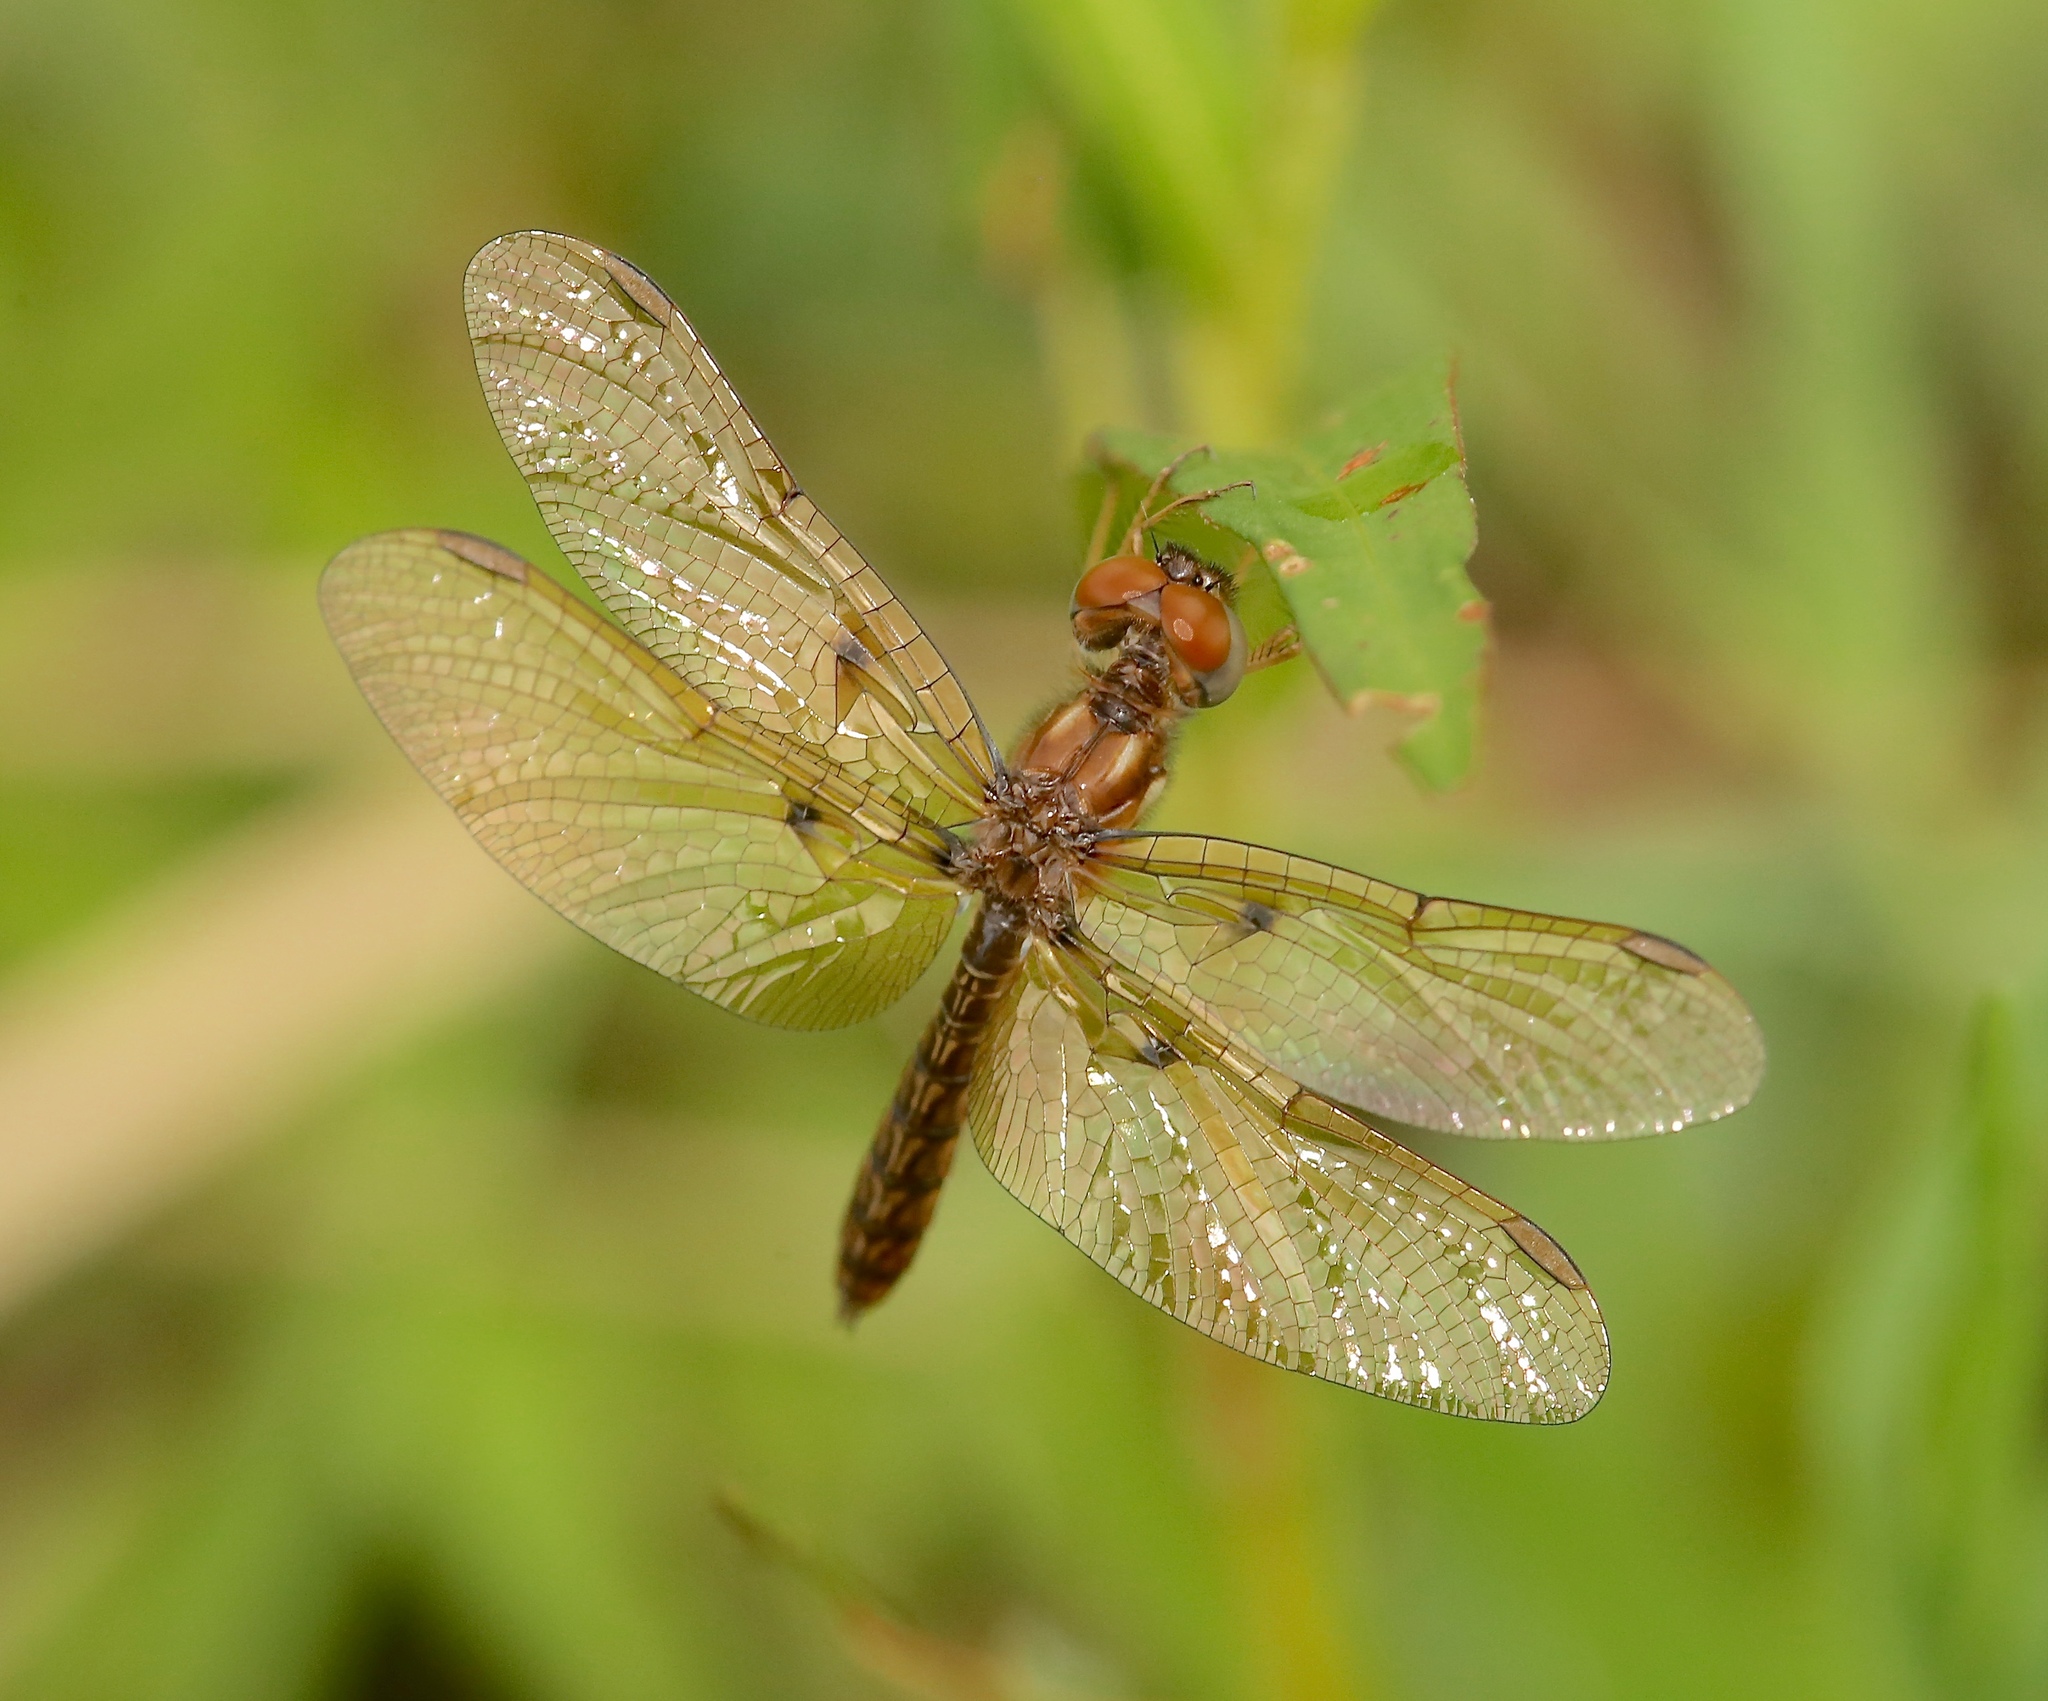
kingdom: Animalia
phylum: Arthropoda
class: Insecta
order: Odonata
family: Libellulidae
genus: Perithemis
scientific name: Perithemis tenera
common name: Eastern amberwing
